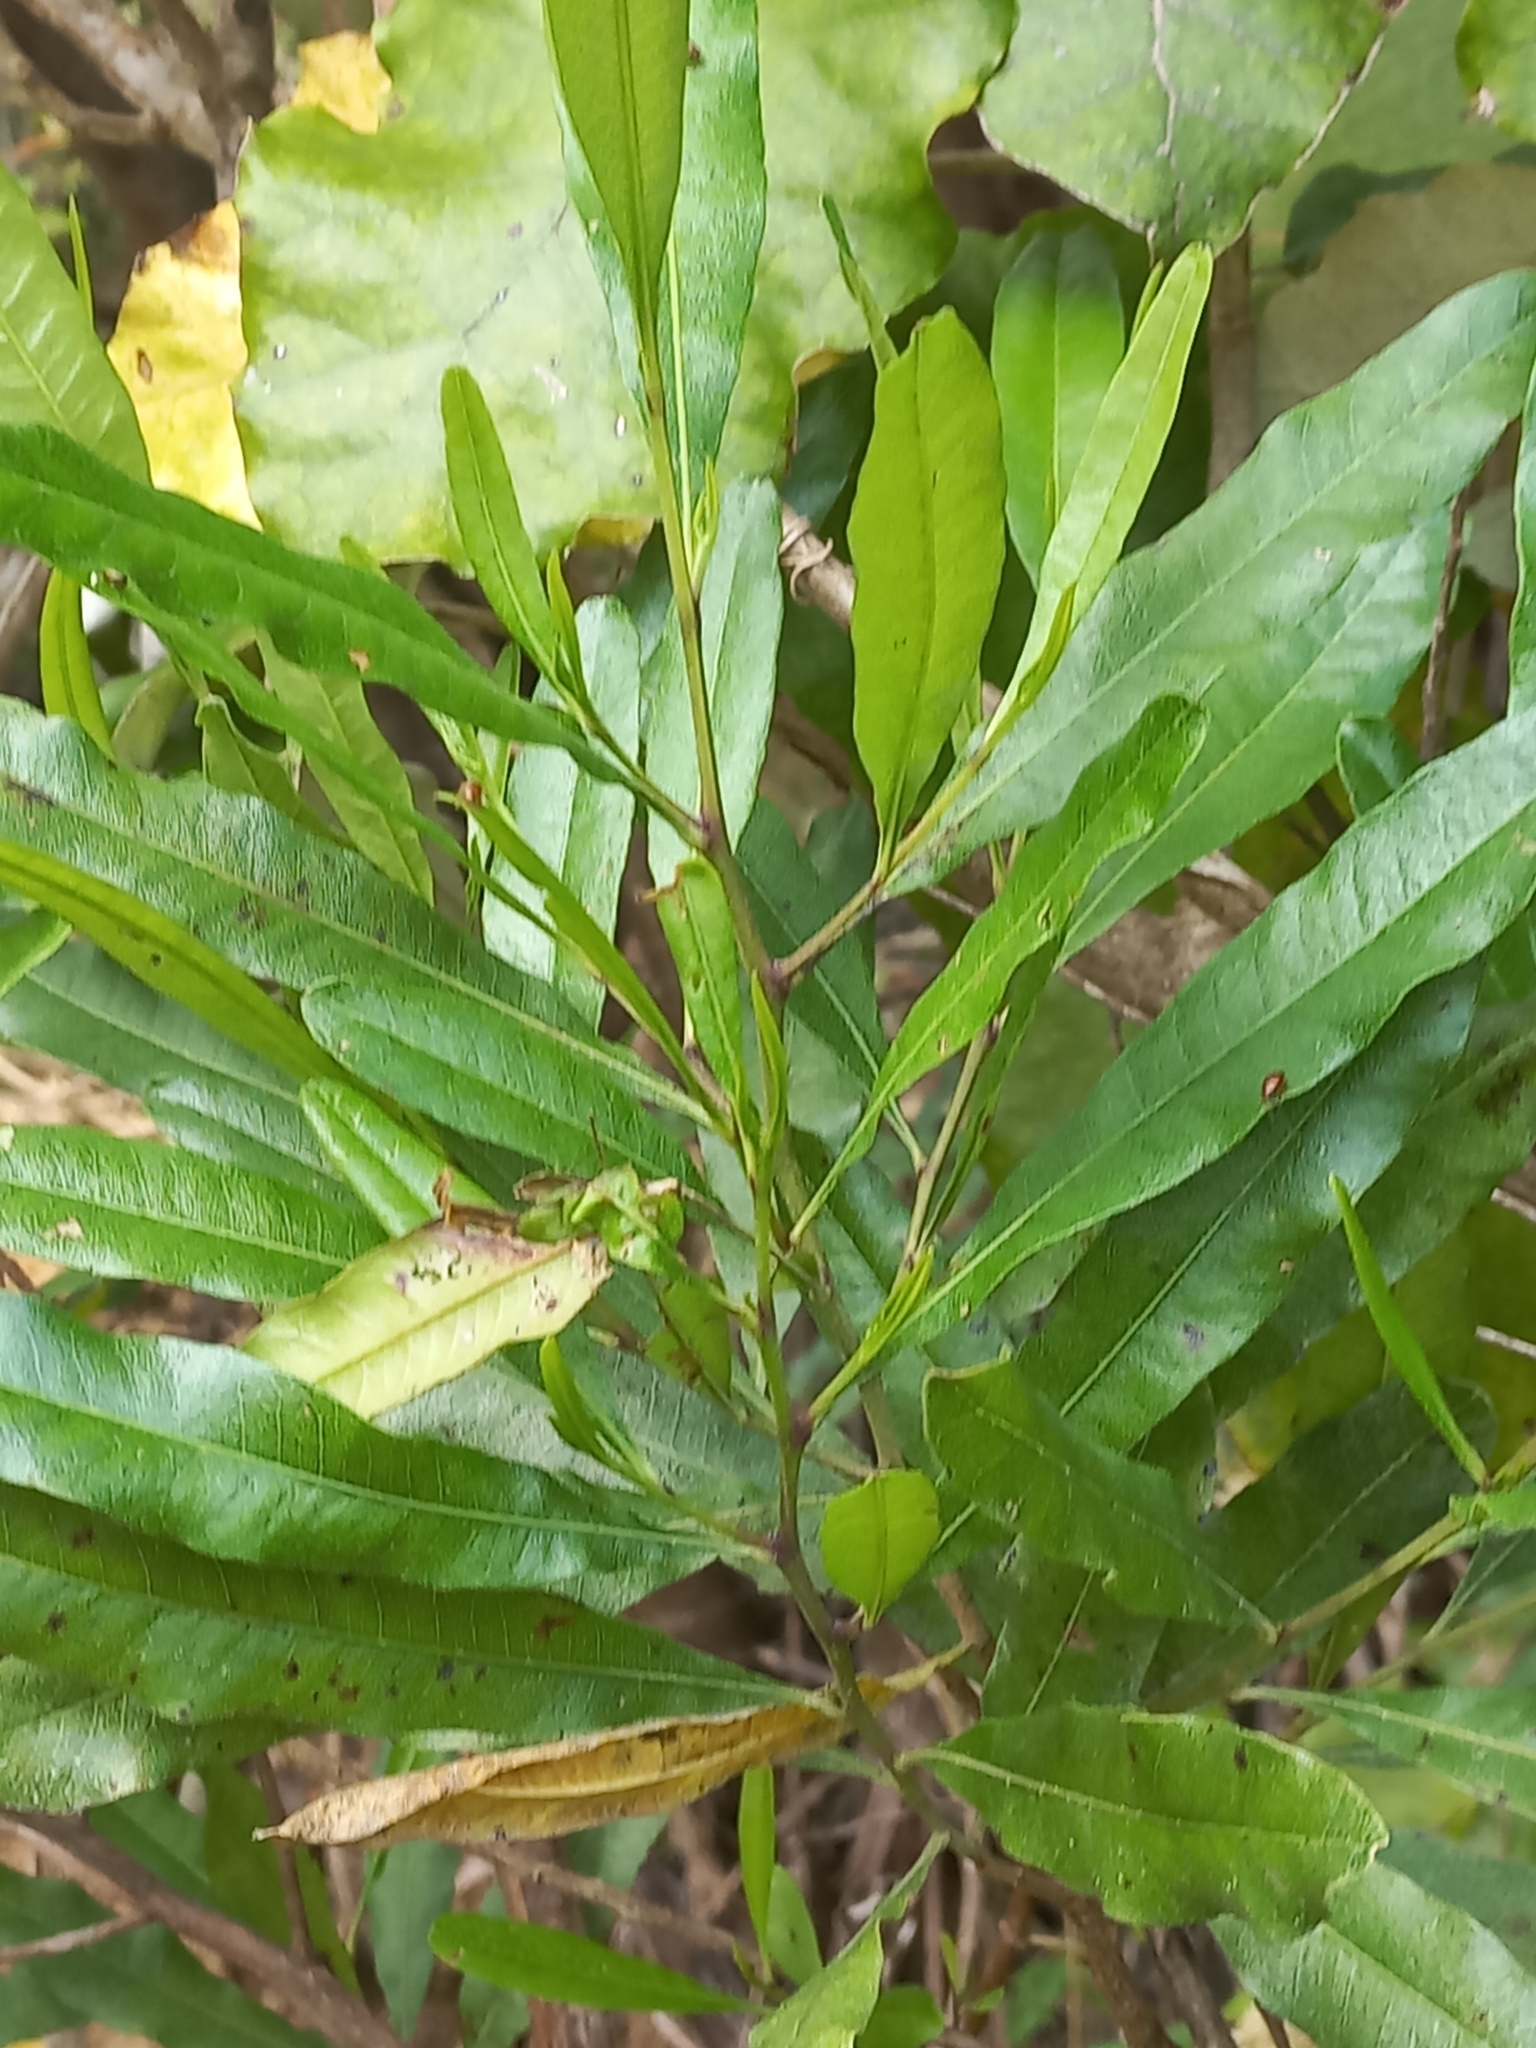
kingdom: Plantae
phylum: Tracheophyta
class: Magnoliopsida
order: Sapindales
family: Sapindaceae
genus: Dodonaea
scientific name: Dodonaea viscosa
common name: Hopbush
